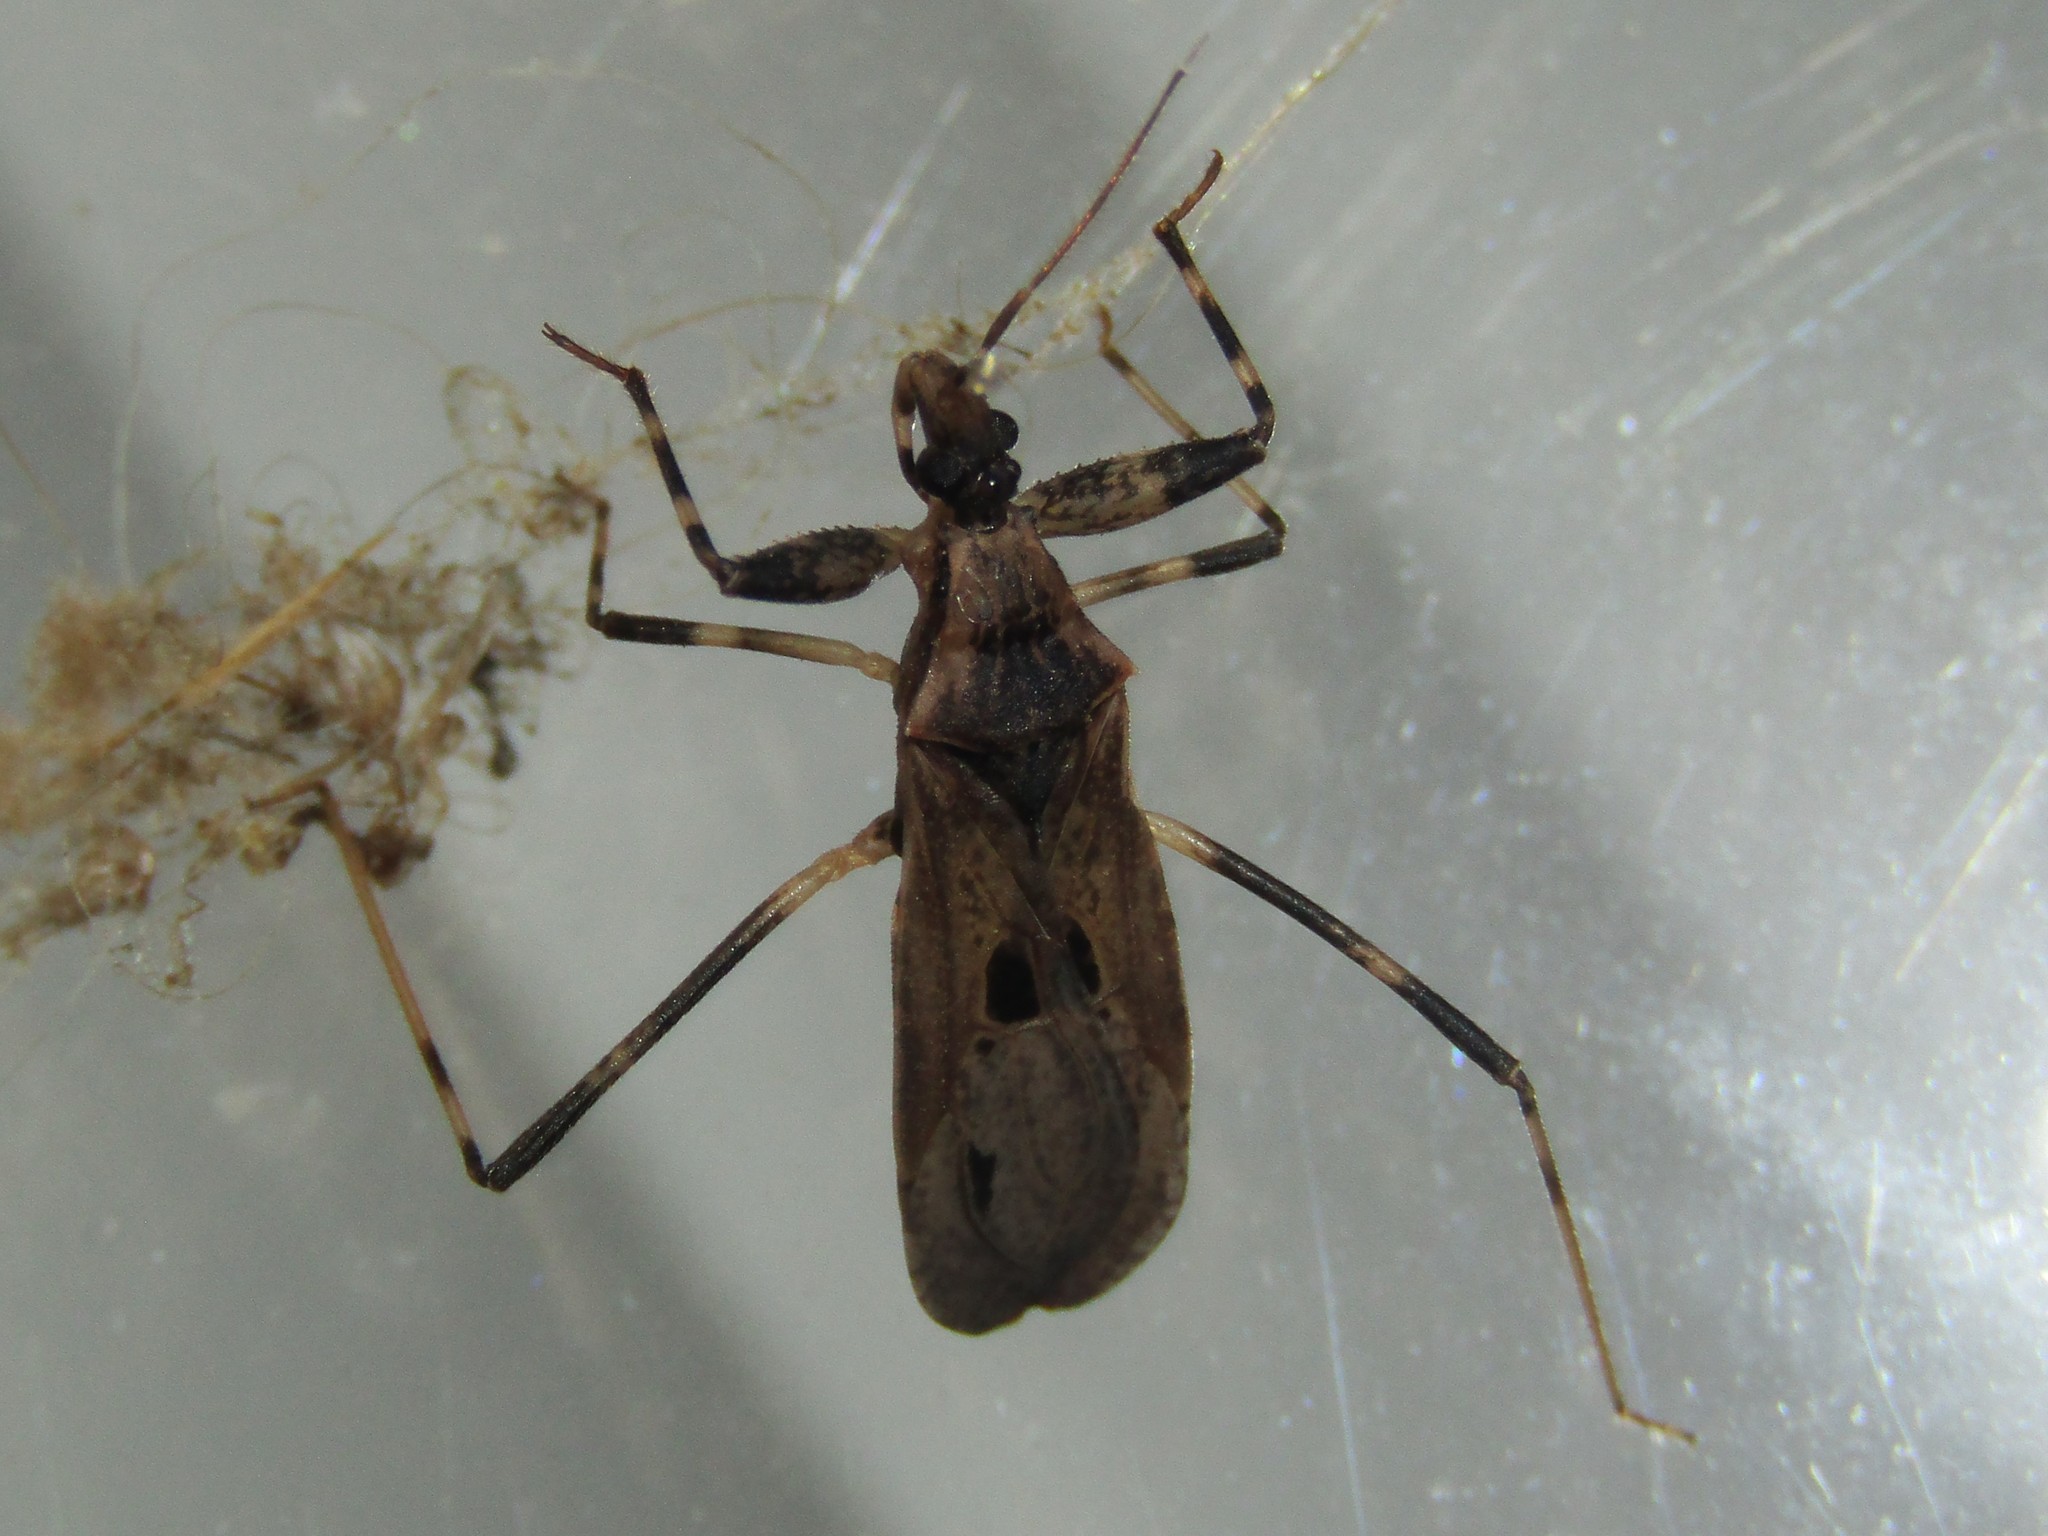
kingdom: Animalia
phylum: Arthropoda
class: Insecta
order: Hemiptera
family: Reduviidae
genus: Oncocephalus
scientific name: Oncocephalus geniculatus
